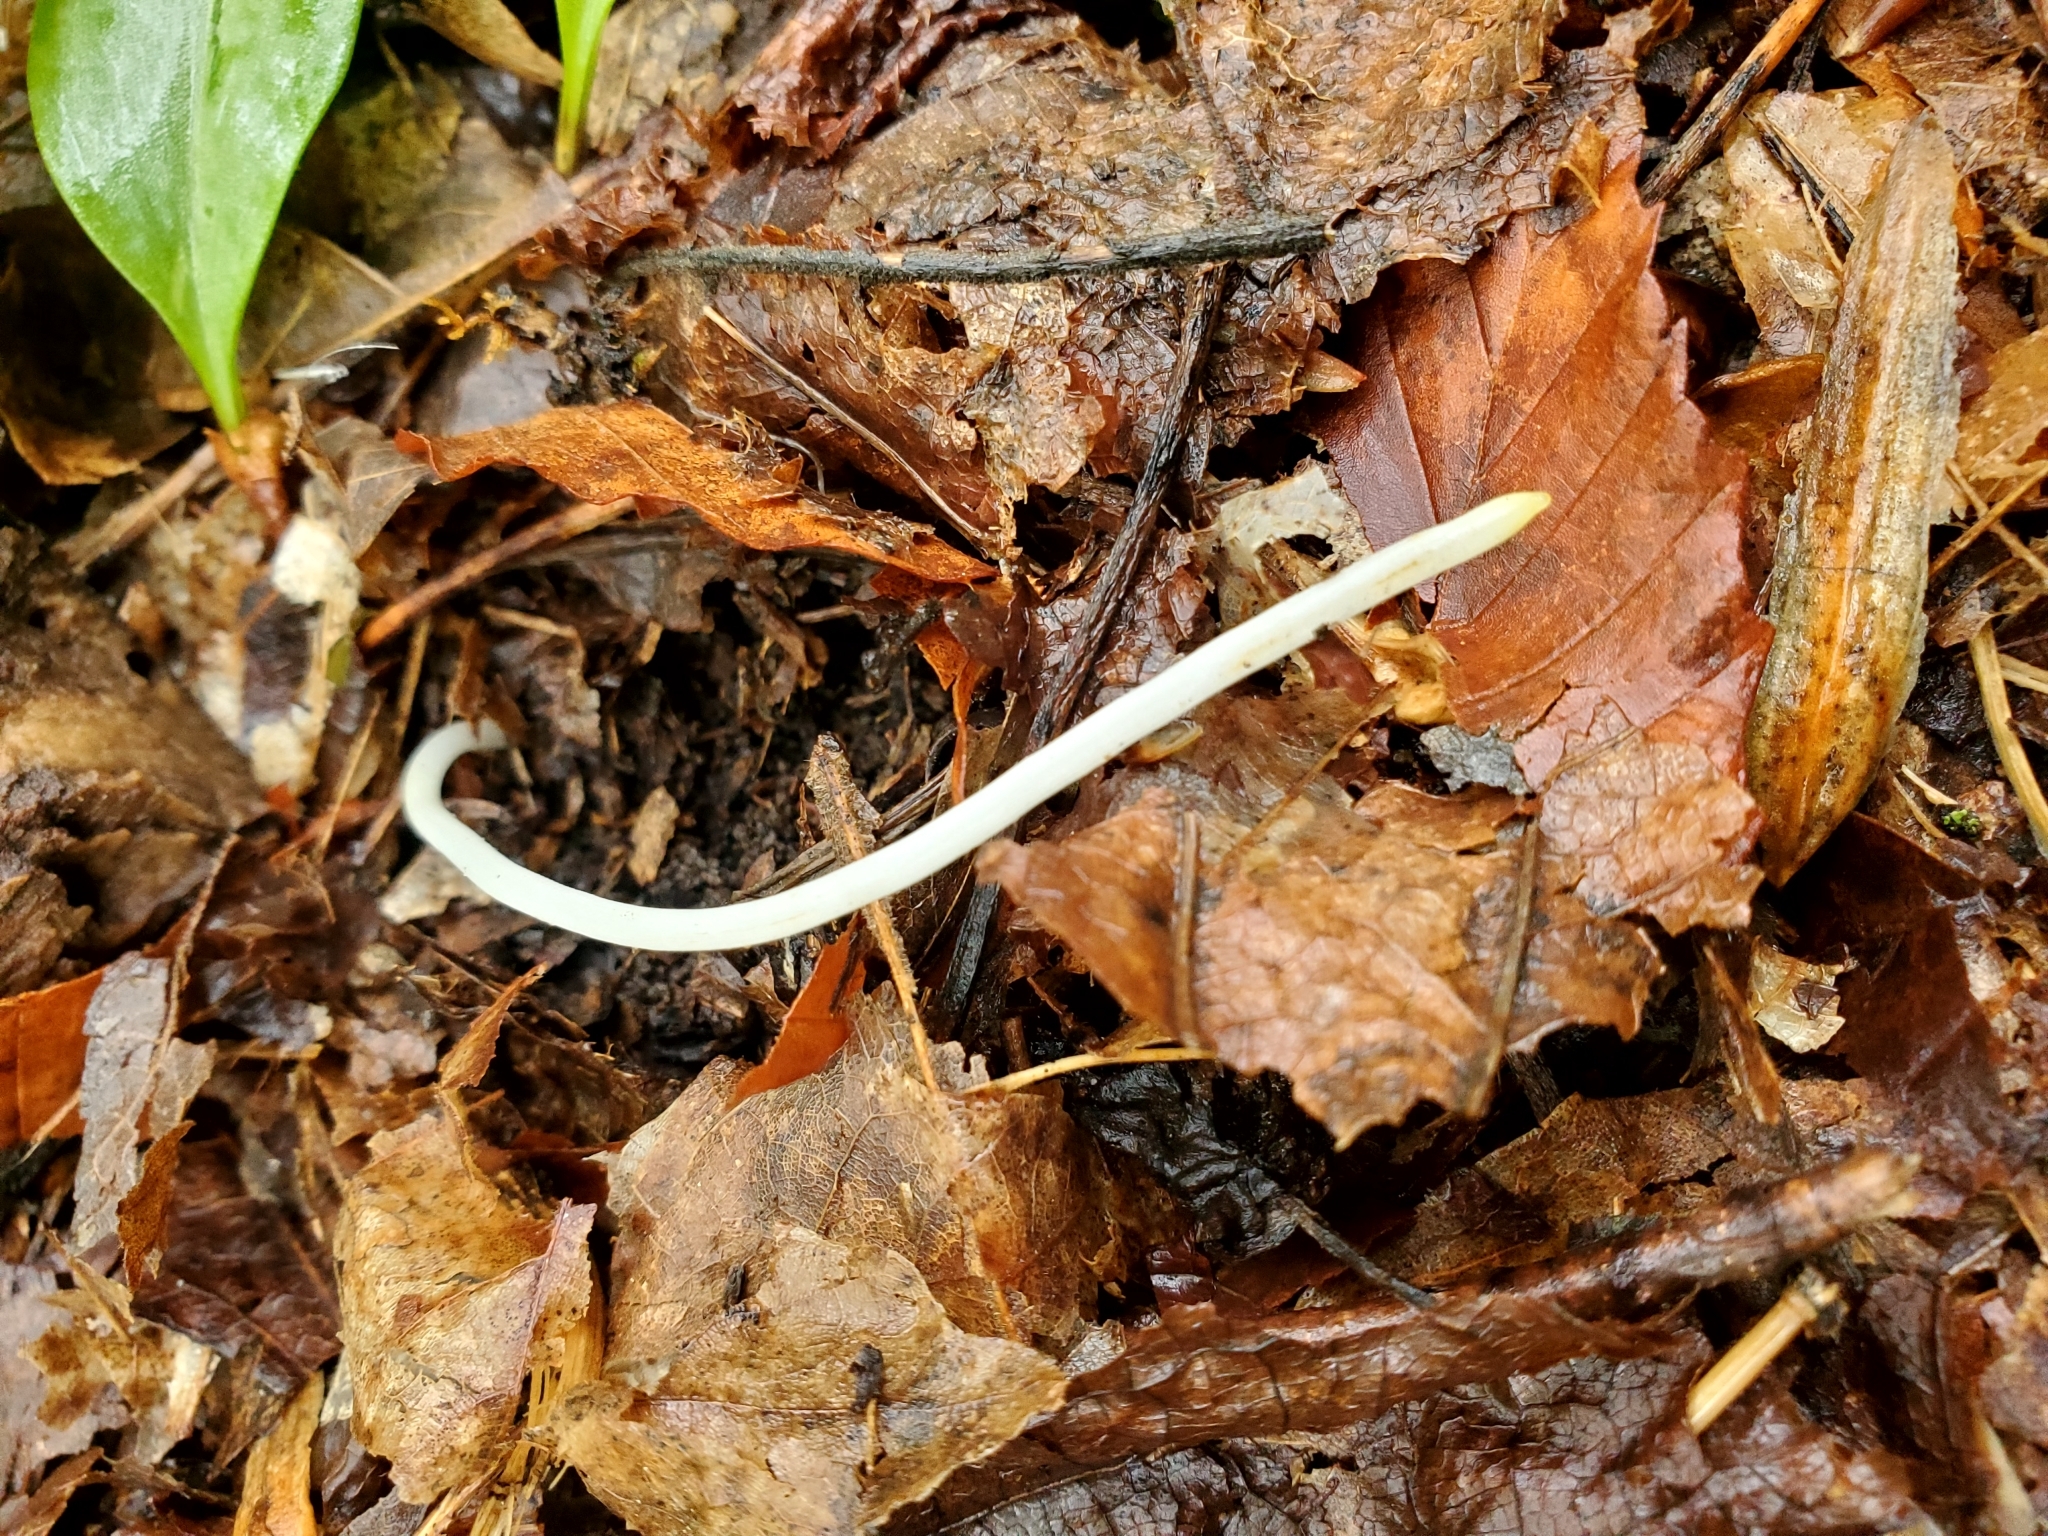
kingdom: Plantae
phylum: Tracheophyta
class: Liliopsida
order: Liliales
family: Liliaceae
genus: Erythronium
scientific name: Erythronium americanum
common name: Yellow adder's-tongue
